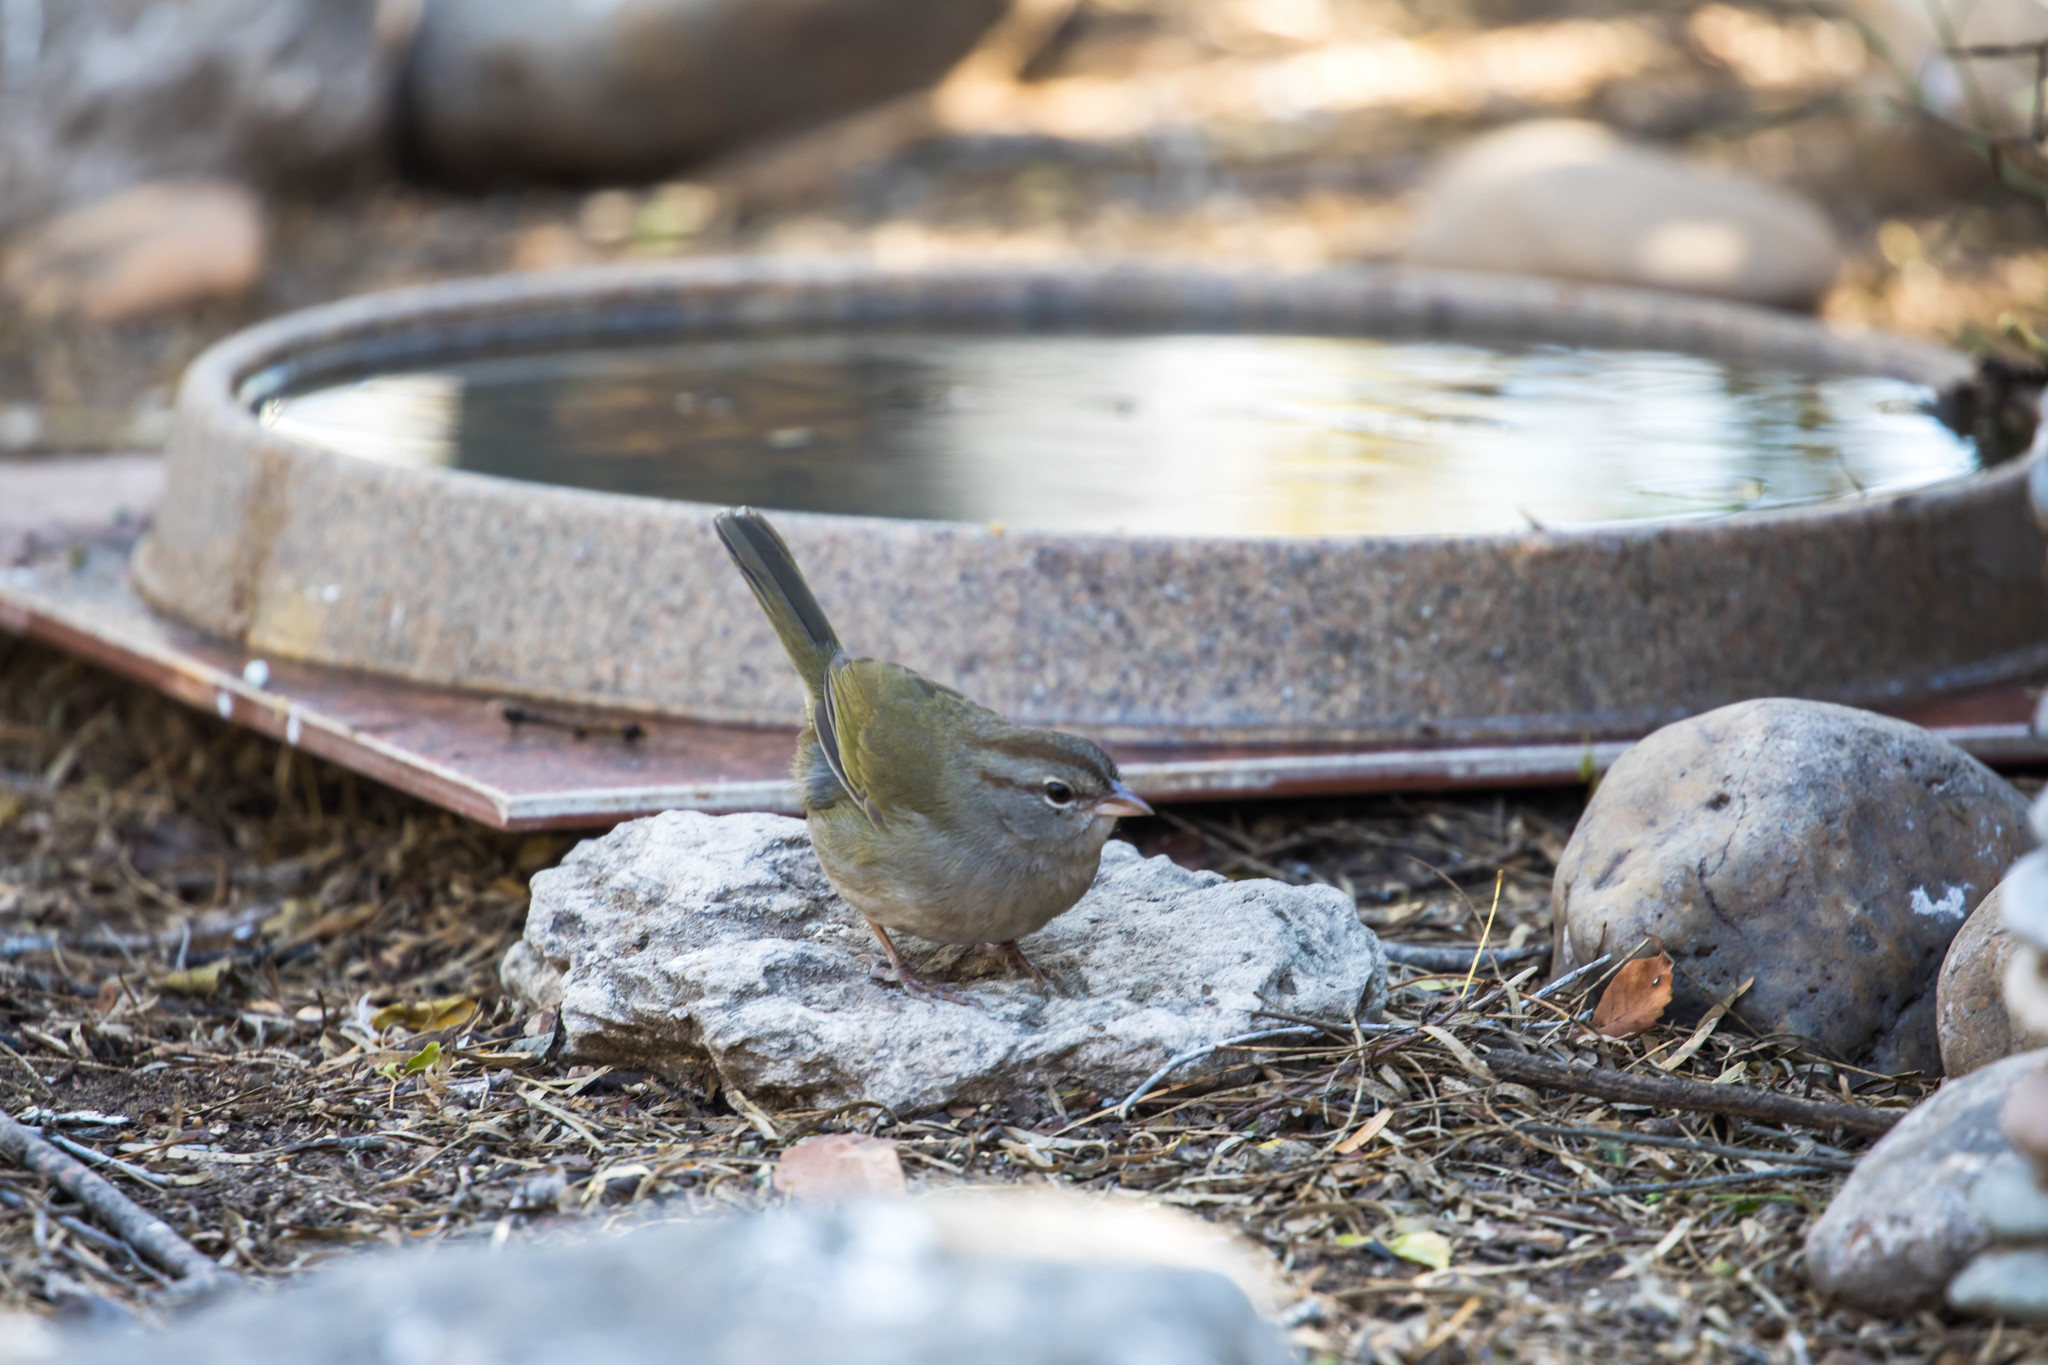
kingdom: Animalia
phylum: Chordata
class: Aves
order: Passeriformes
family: Passerellidae
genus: Arremonops
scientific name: Arremonops rufivirgatus
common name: Olive sparrow
